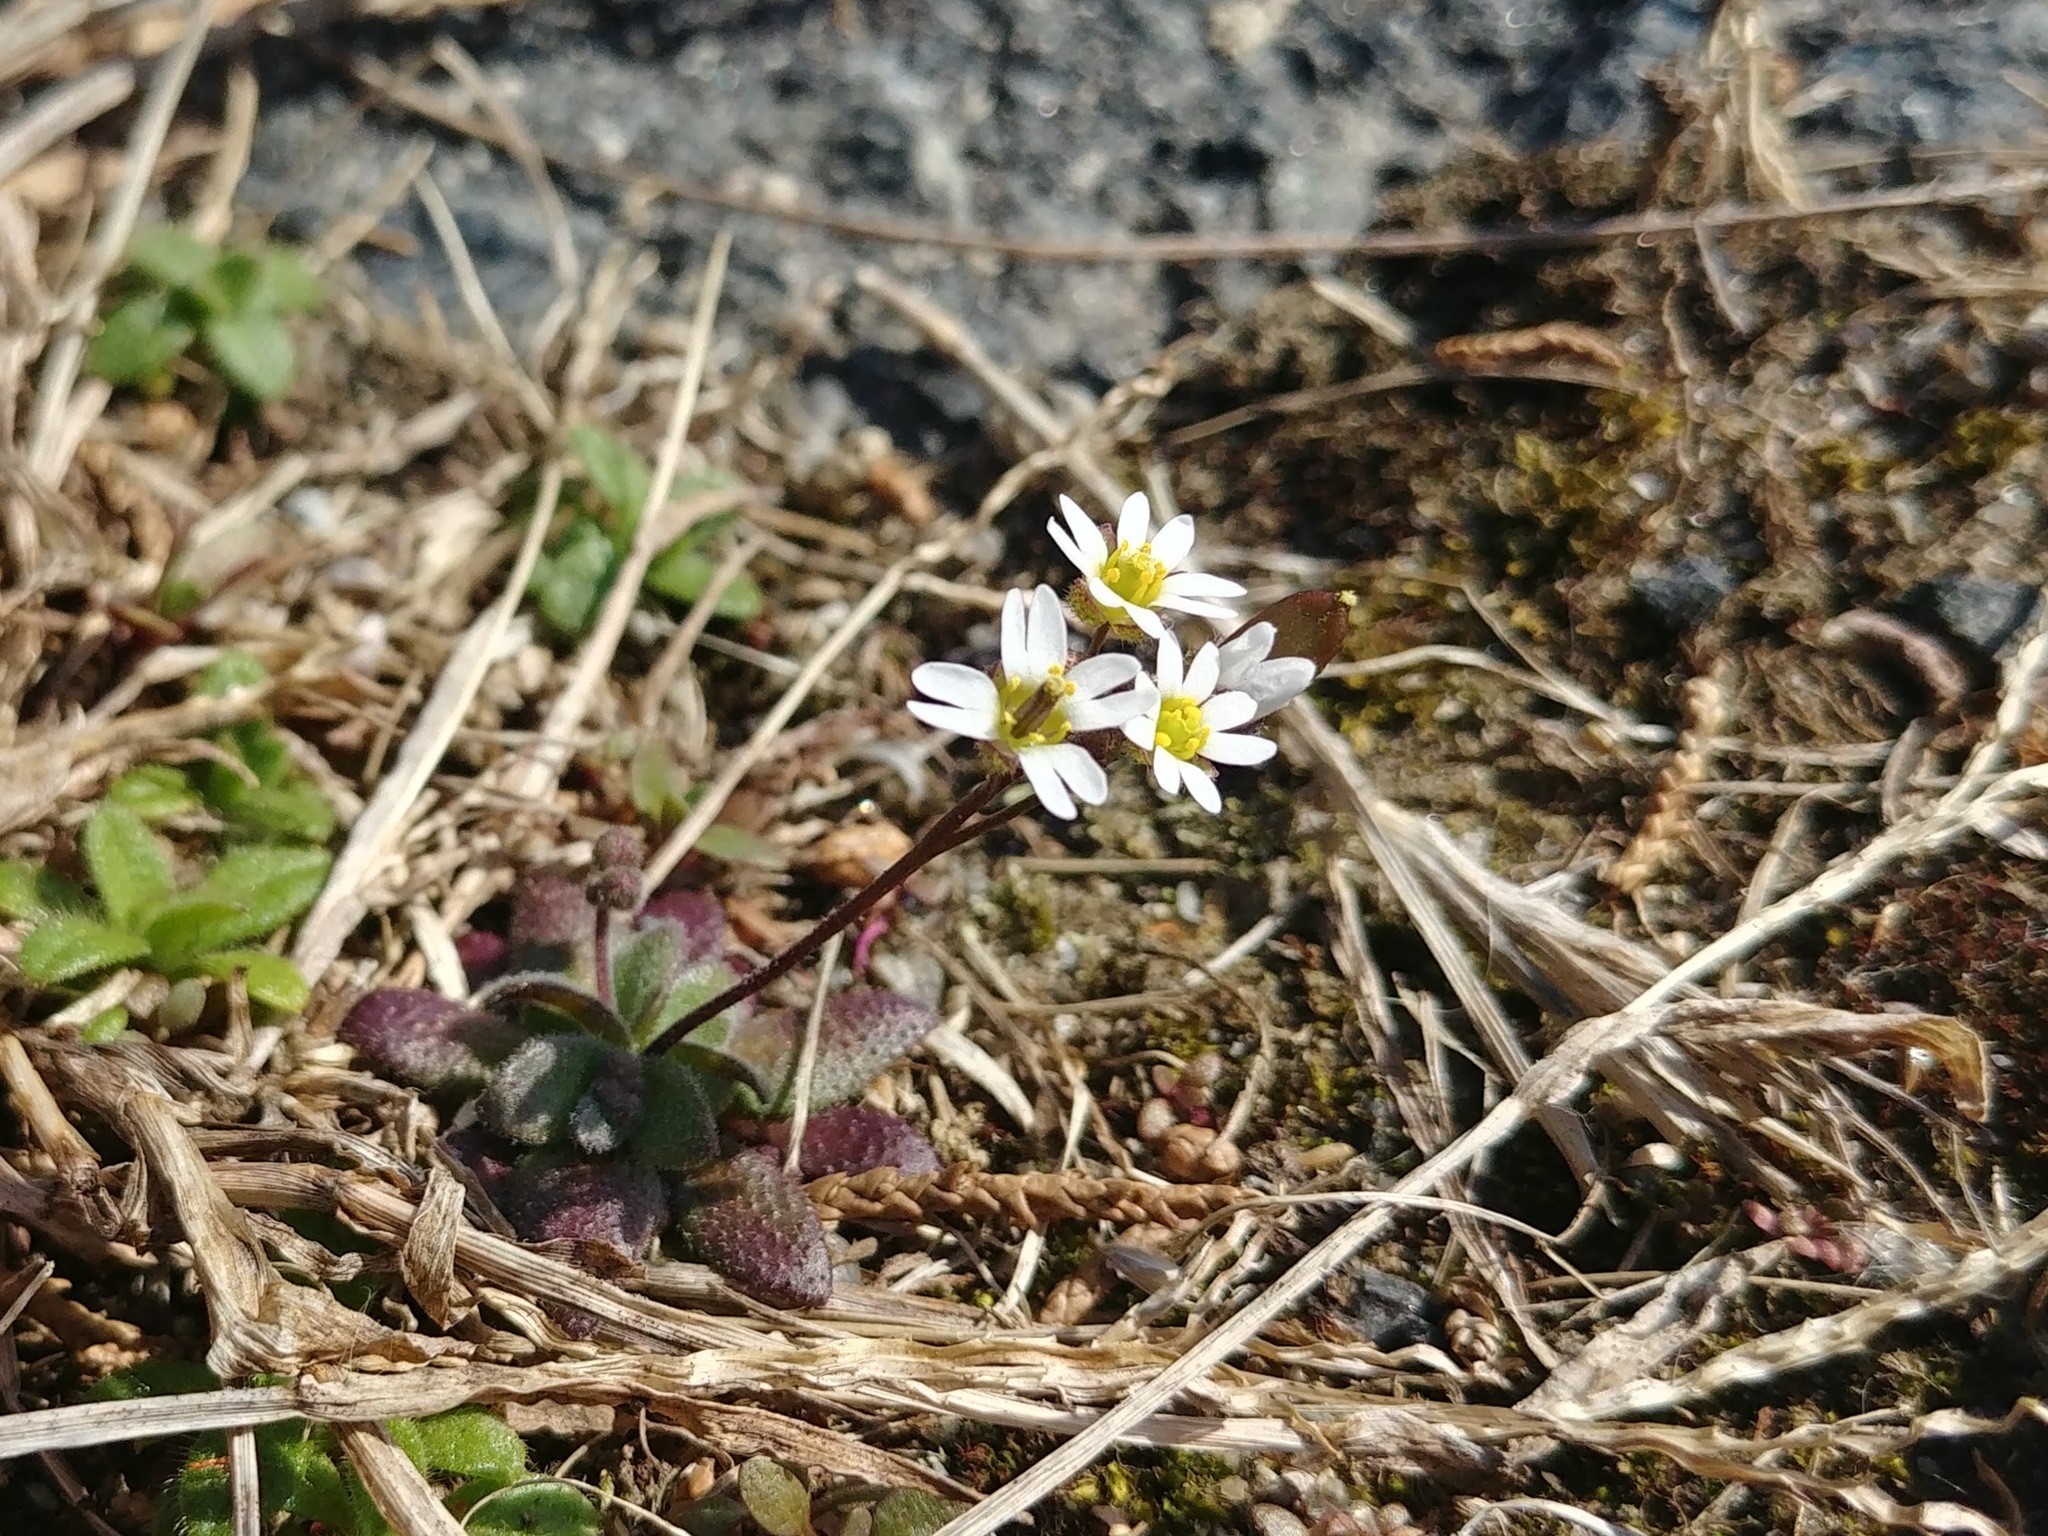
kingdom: Plantae
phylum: Tracheophyta
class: Magnoliopsida
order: Brassicales
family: Brassicaceae
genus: Draba
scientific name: Draba verna
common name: Spring draba
